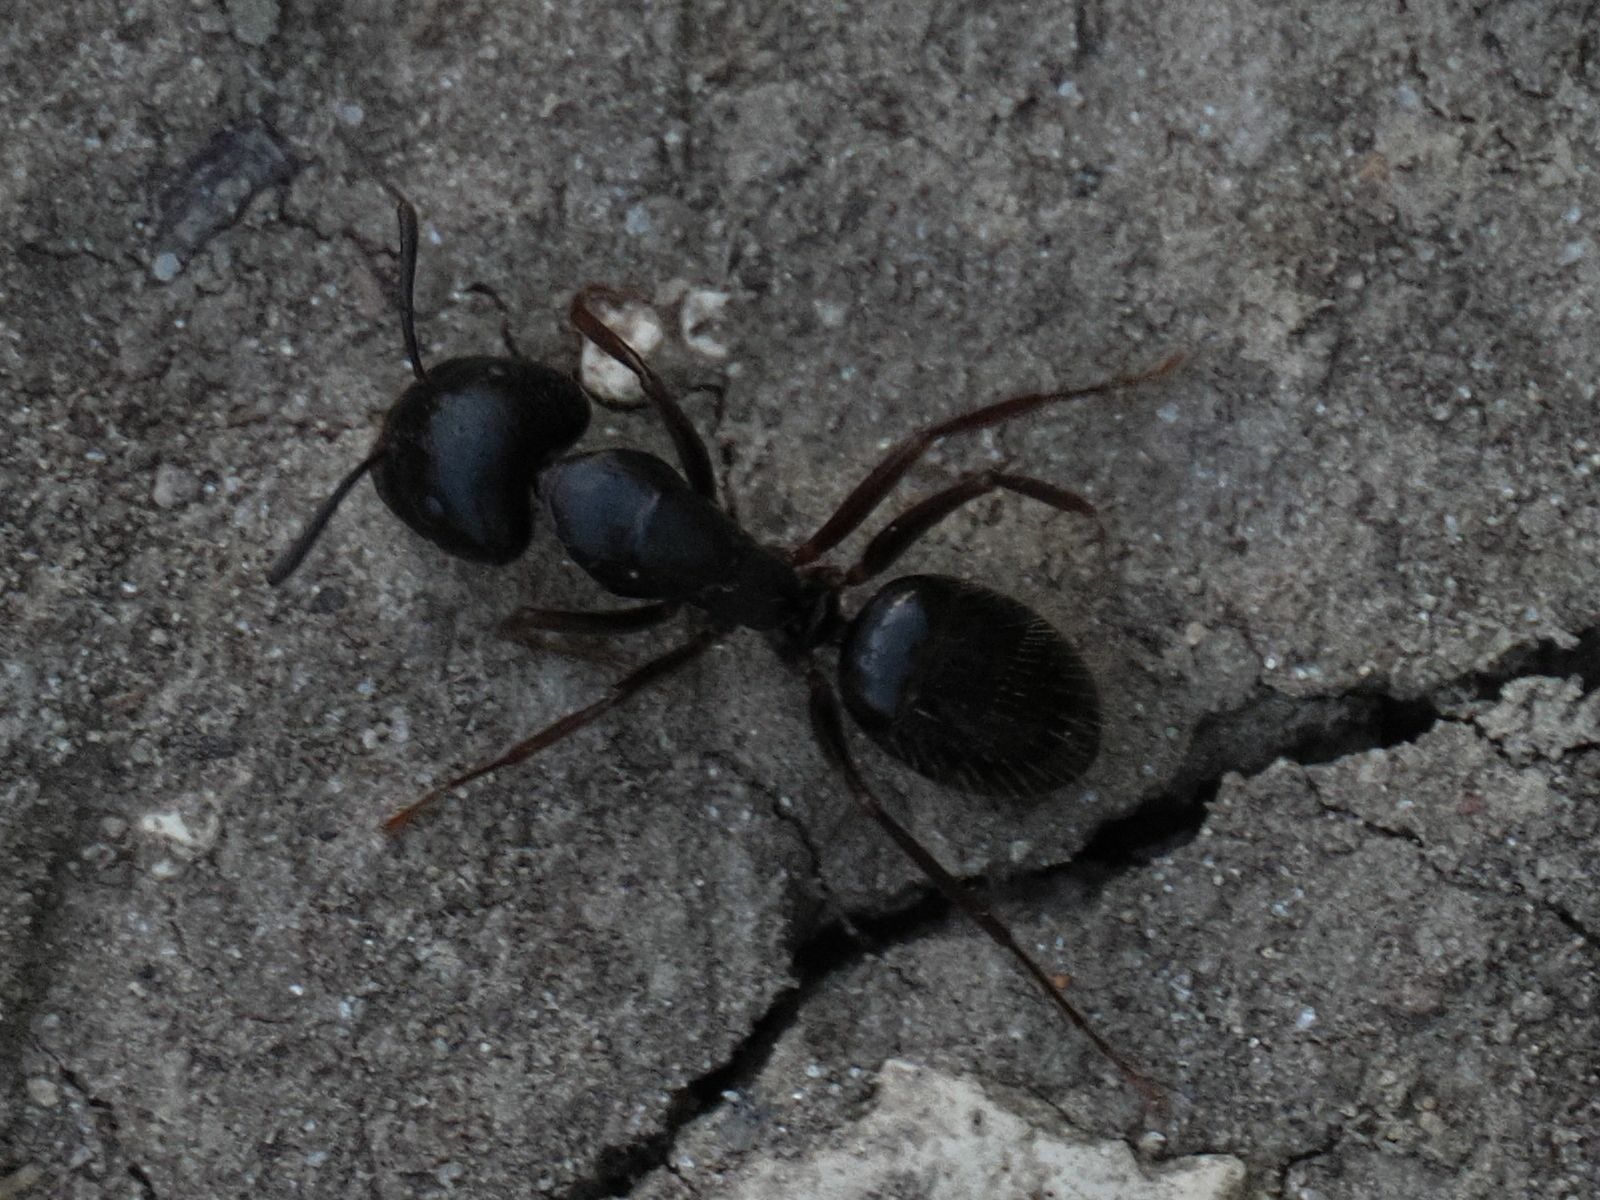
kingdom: Animalia
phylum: Arthropoda
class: Insecta
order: Hymenoptera
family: Formicidae
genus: Camponotus
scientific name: Camponotus aethiops
